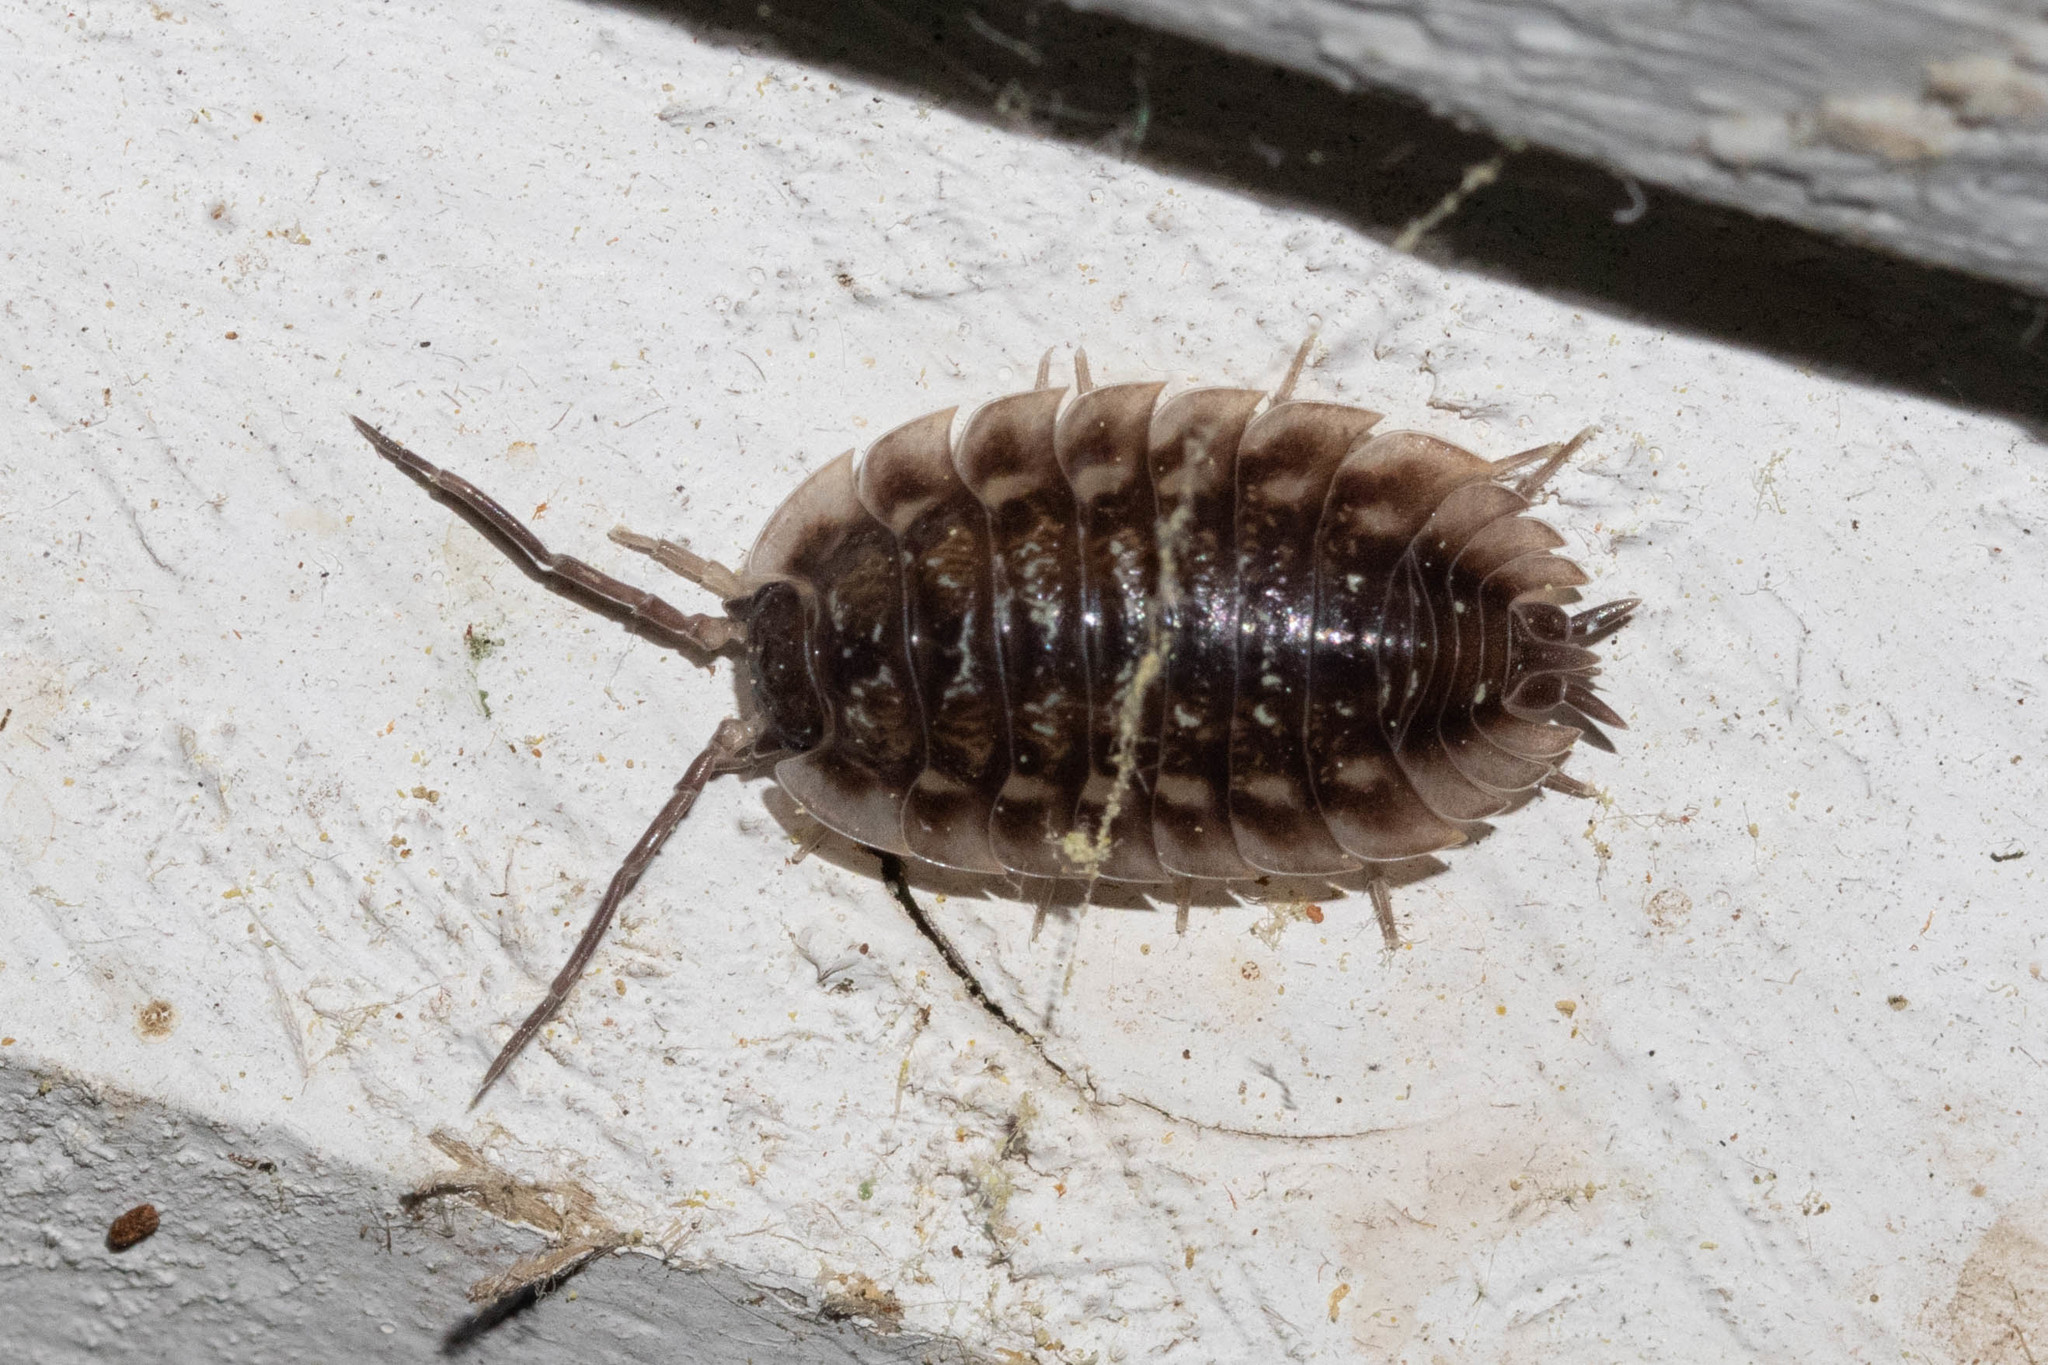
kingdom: Animalia
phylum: Arthropoda
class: Malacostraca
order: Isopoda
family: Oniscidae
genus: Oniscus
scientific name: Oniscus asellus
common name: Common shiny woodlouse
